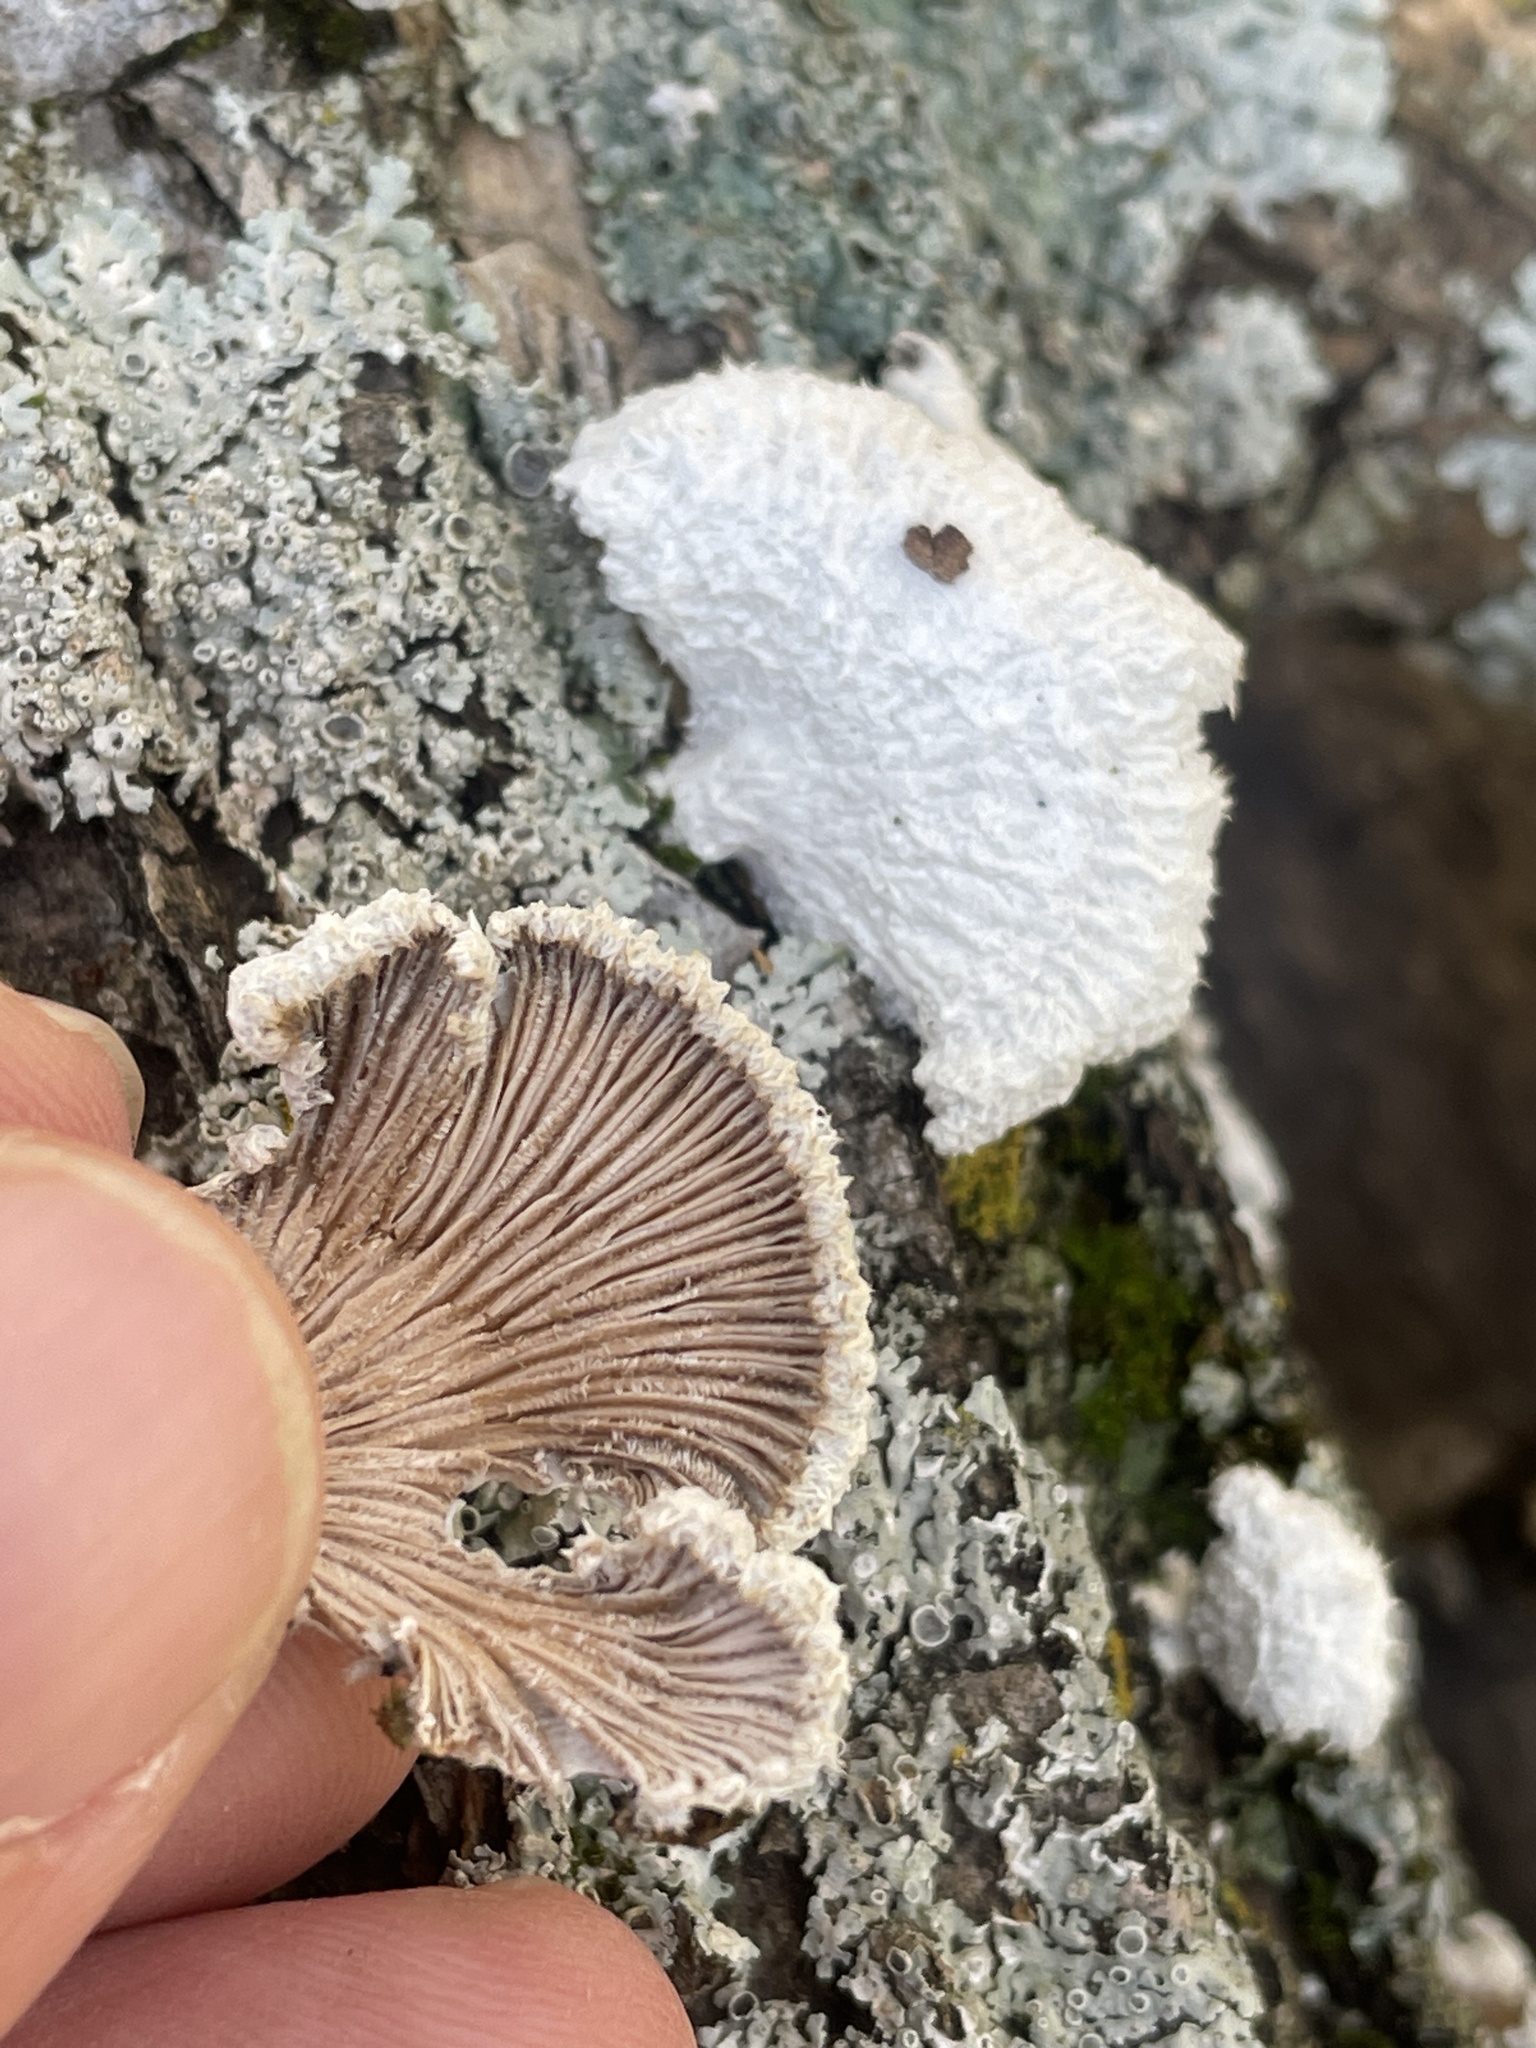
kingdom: Fungi
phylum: Basidiomycota
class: Agaricomycetes
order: Agaricales
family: Schizophyllaceae
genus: Schizophyllum
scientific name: Schizophyllum commune
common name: Common porecrust
